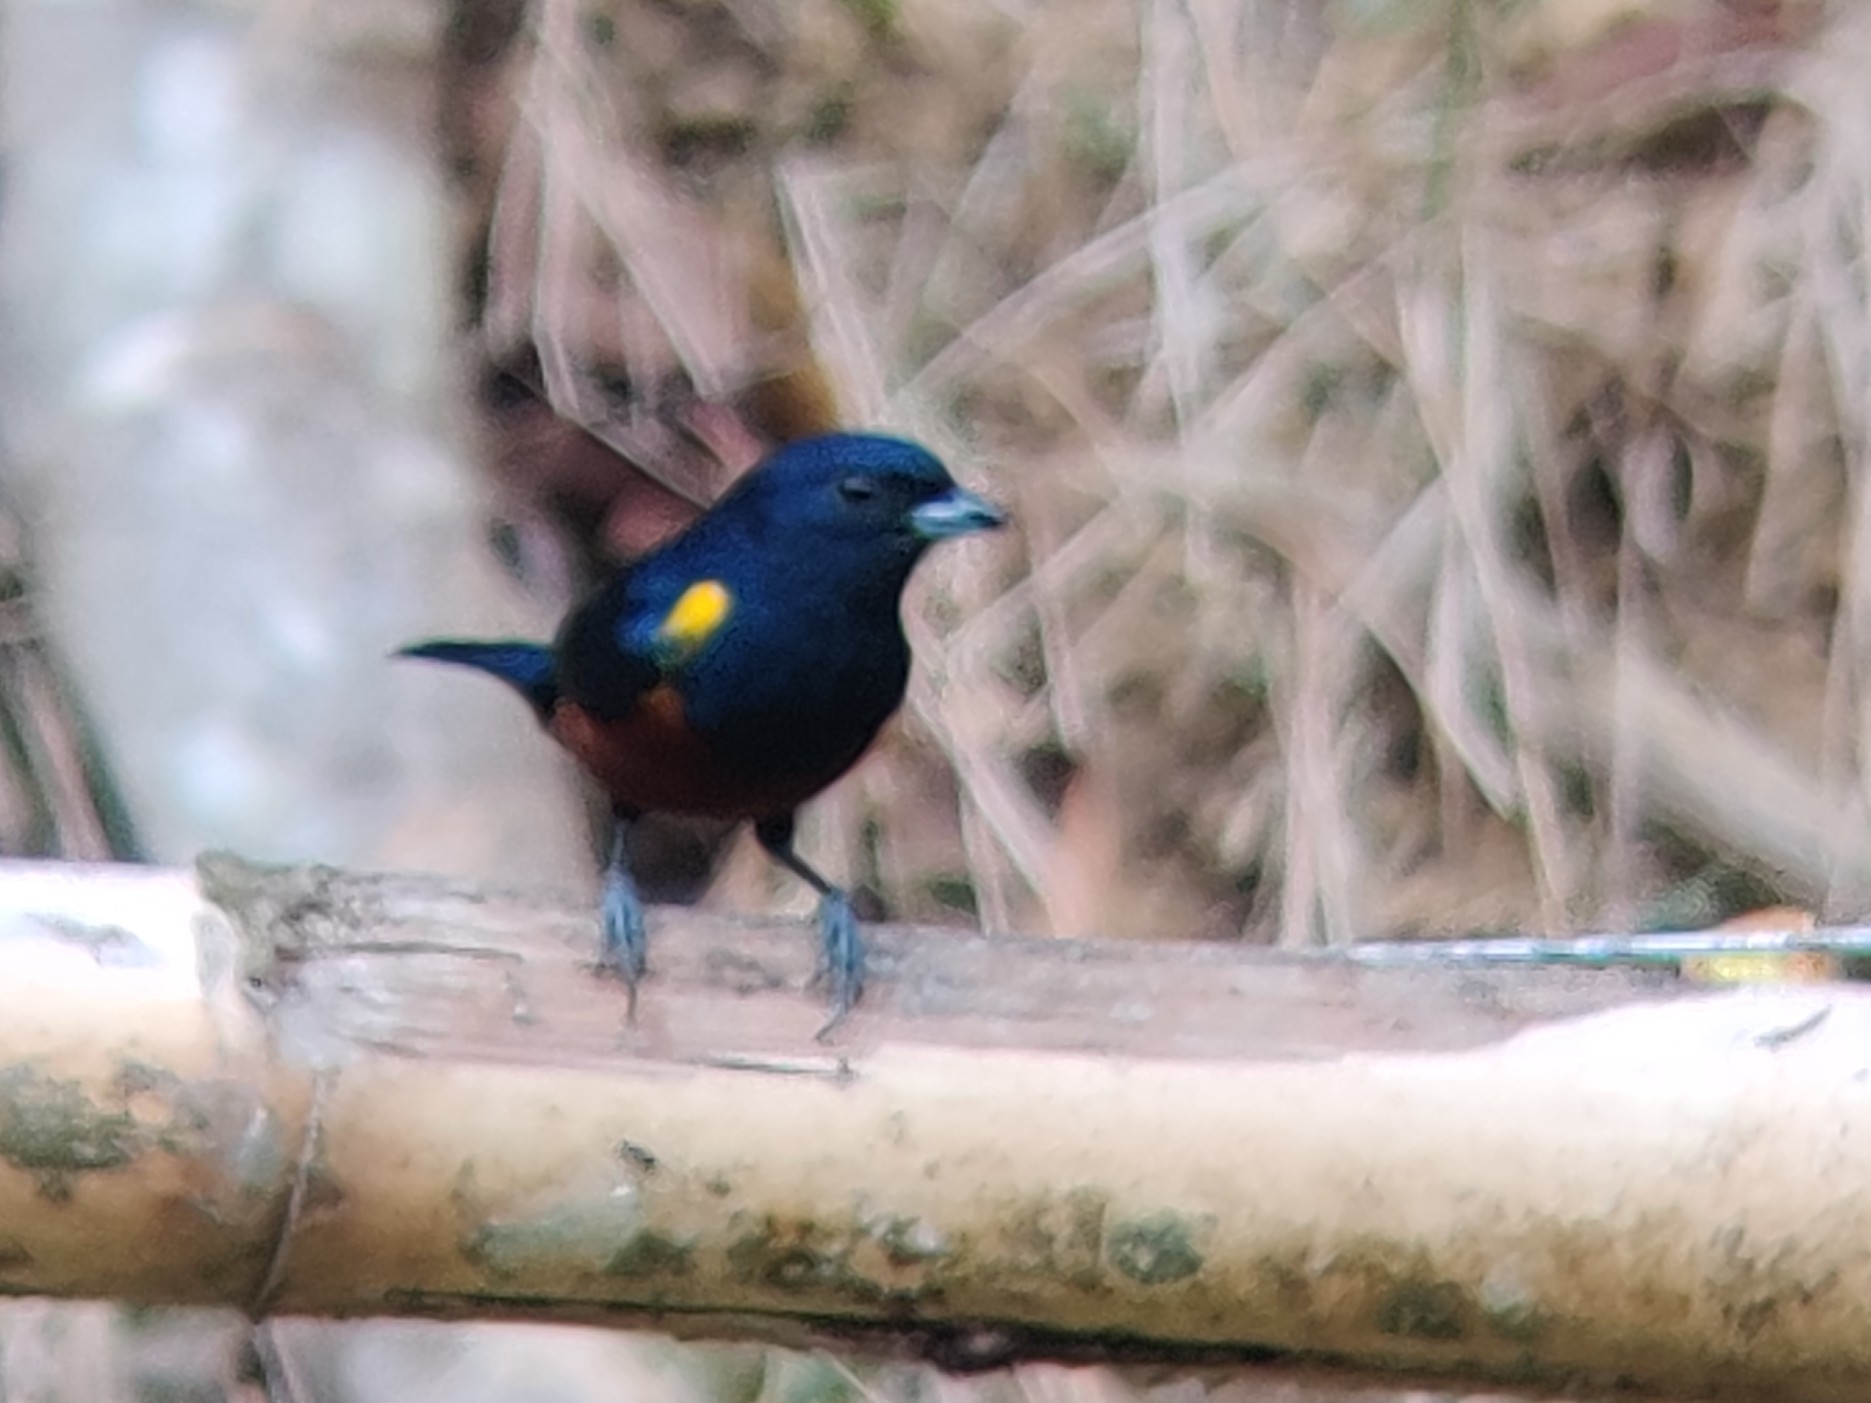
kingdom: Animalia
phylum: Chordata
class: Aves
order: Passeriformes
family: Fringillidae
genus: Euphonia
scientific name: Euphonia pectoralis
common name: Chestnut-bellied euphonia
